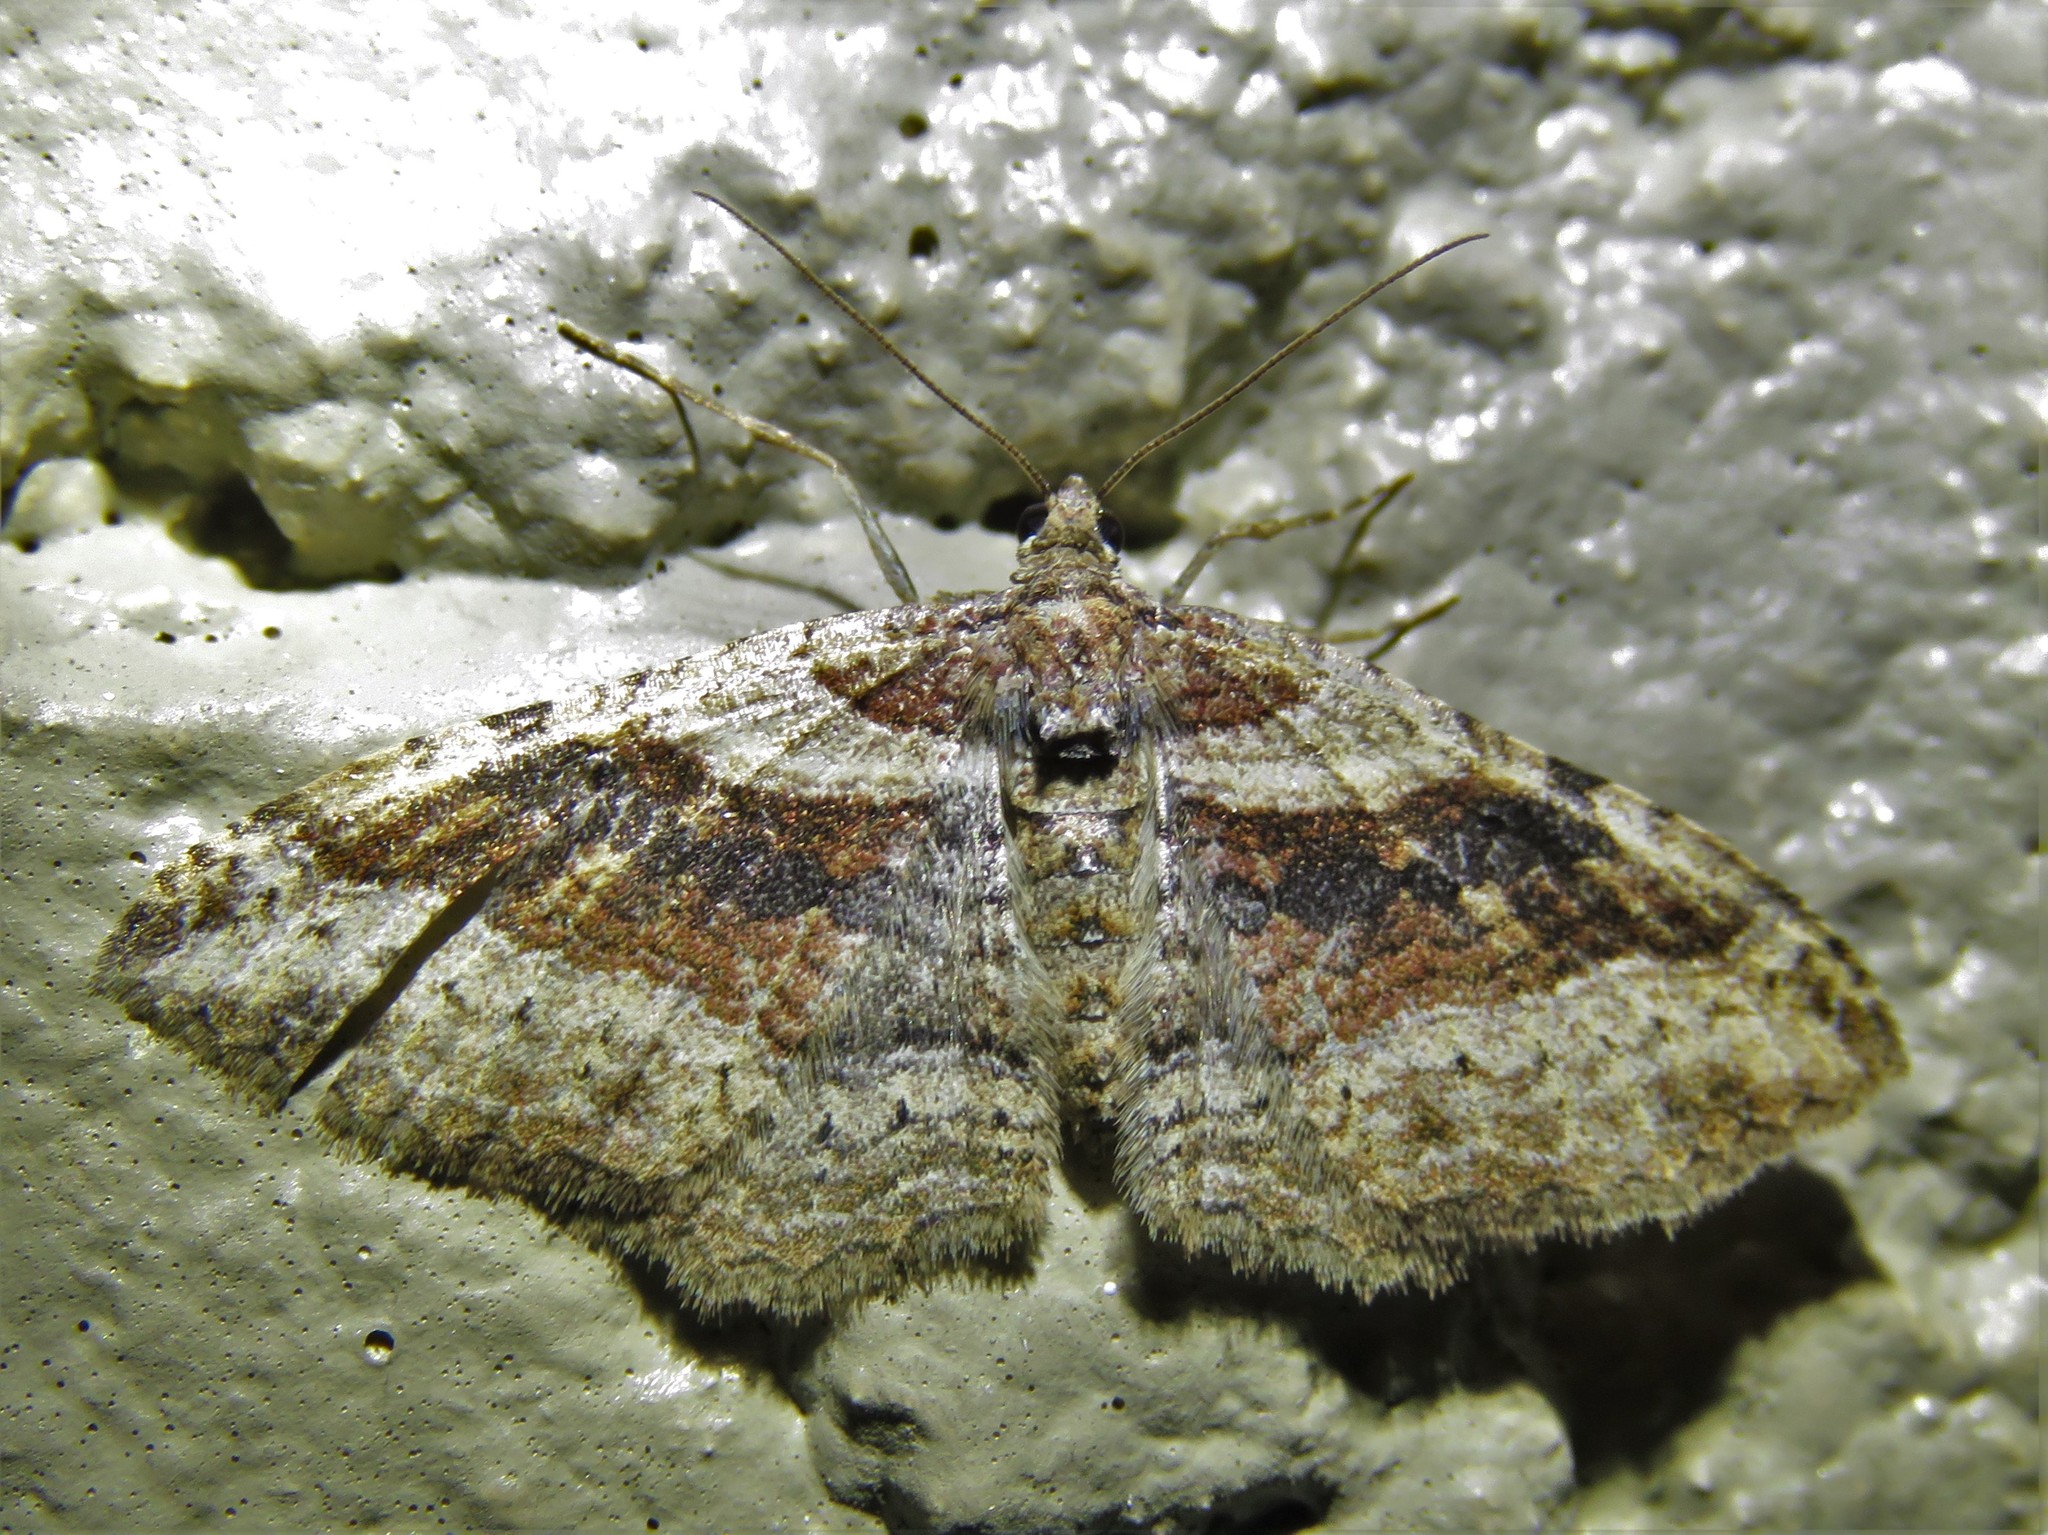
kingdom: Animalia
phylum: Arthropoda
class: Insecta
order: Lepidoptera
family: Geometridae
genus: Costaconvexa
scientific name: Costaconvexa centrostrigaria
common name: Bent-line carpet
